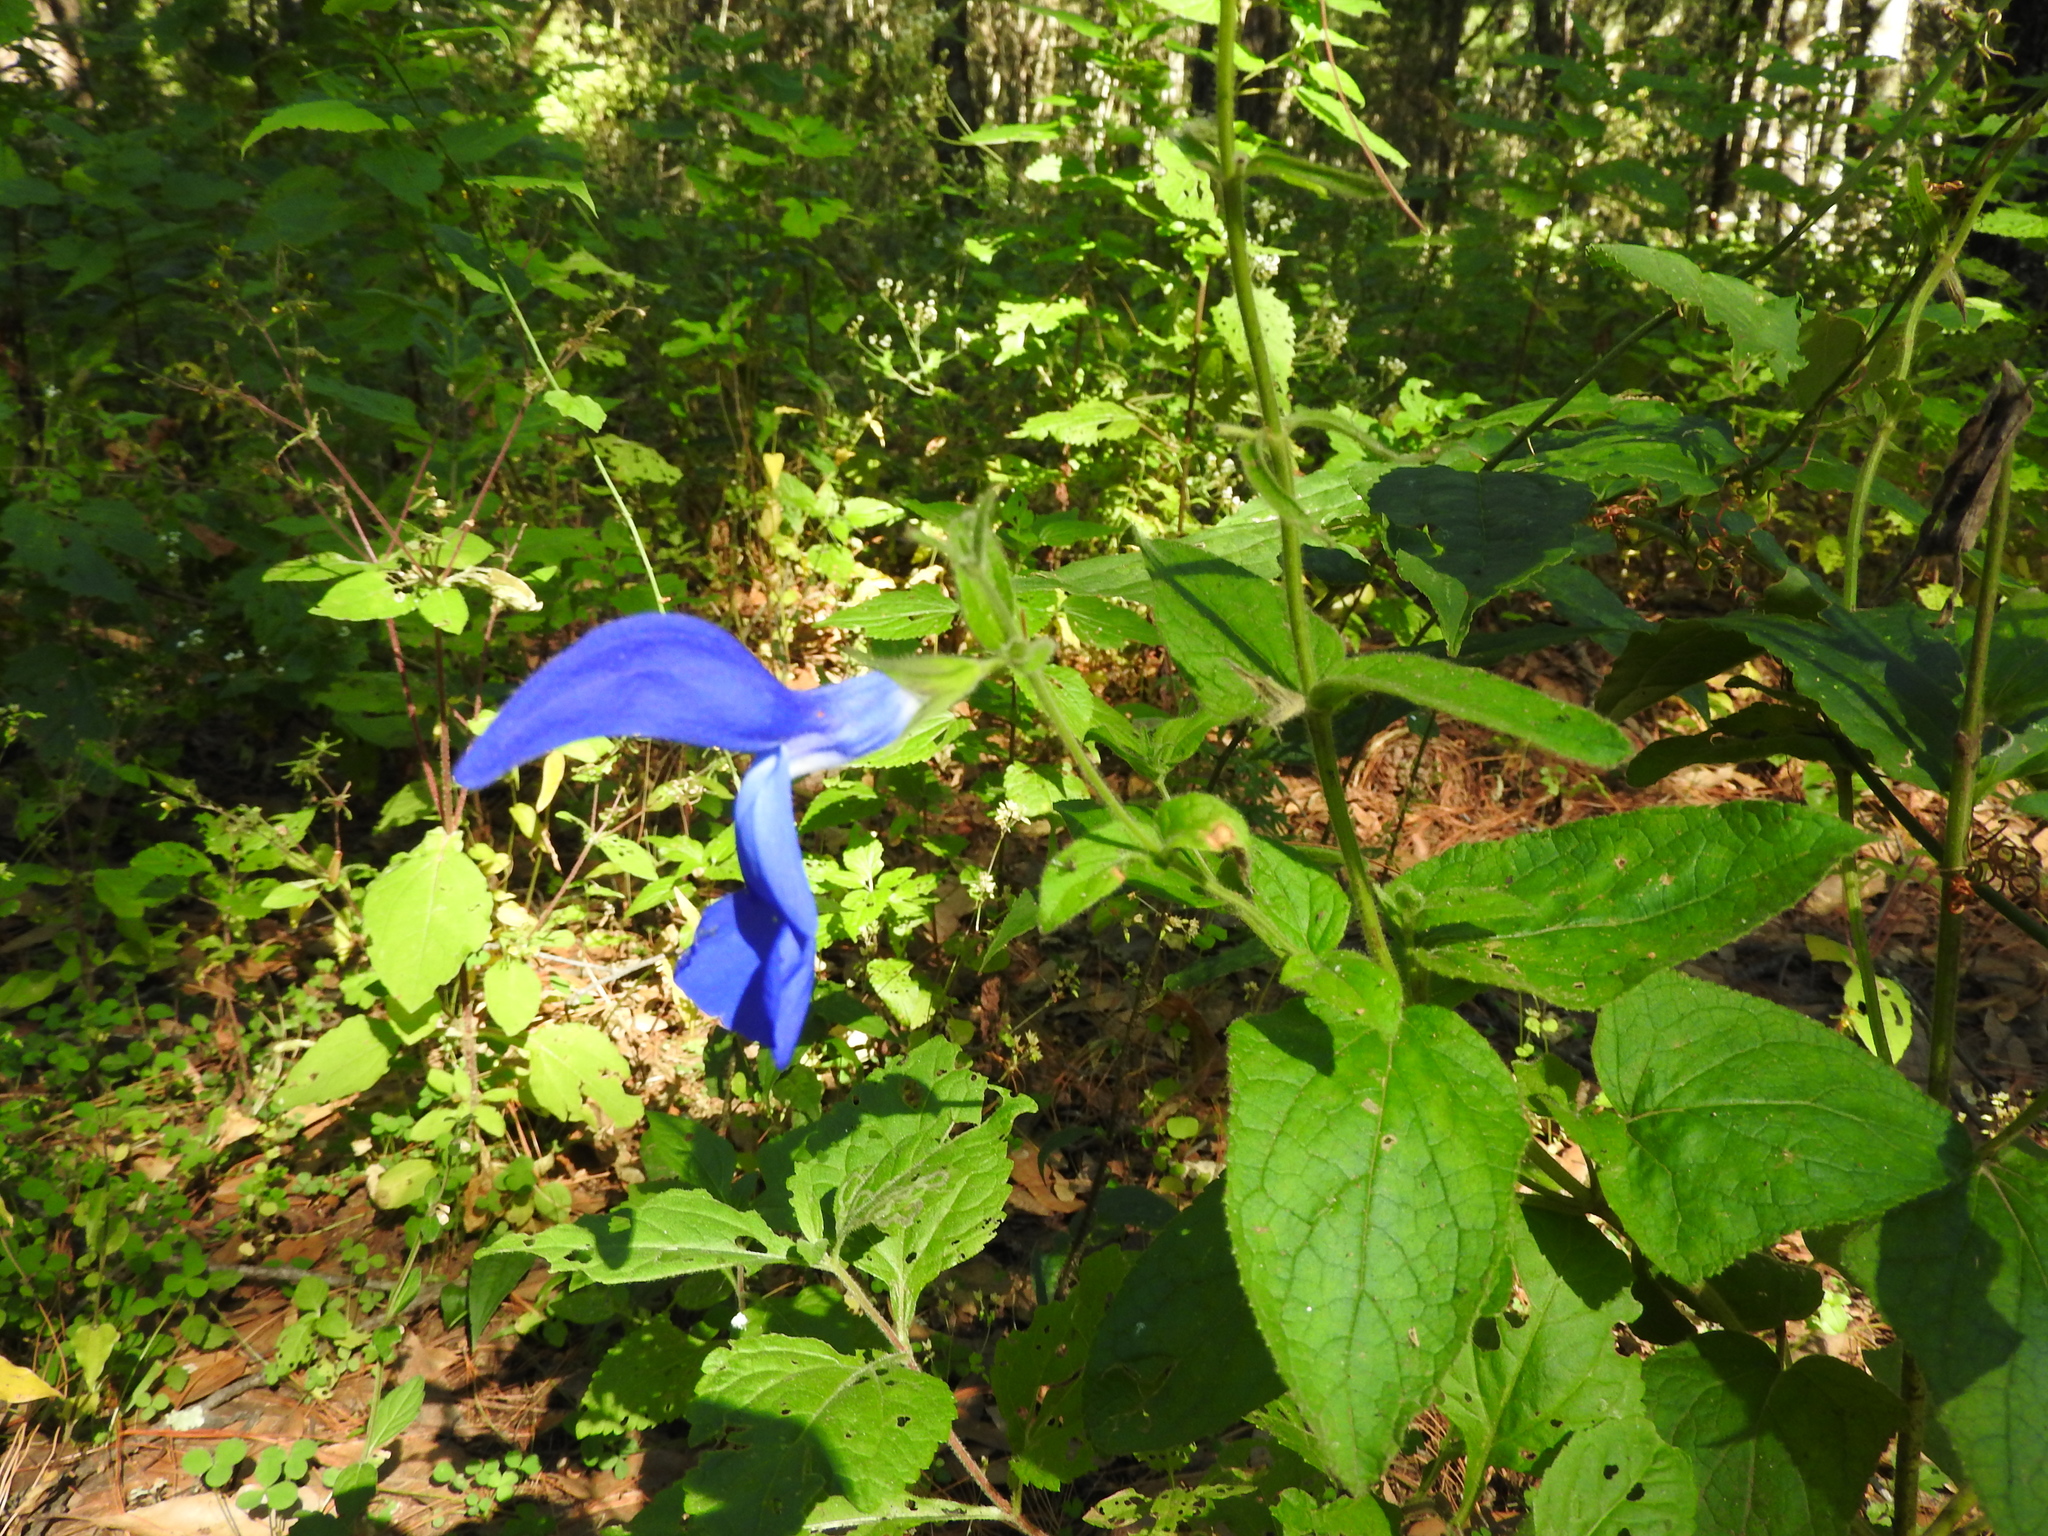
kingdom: Plantae
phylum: Tracheophyta
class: Magnoliopsida
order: Lamiales
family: Lamiaceae
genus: Salvia
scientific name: Salvia patens
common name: Blue sage
